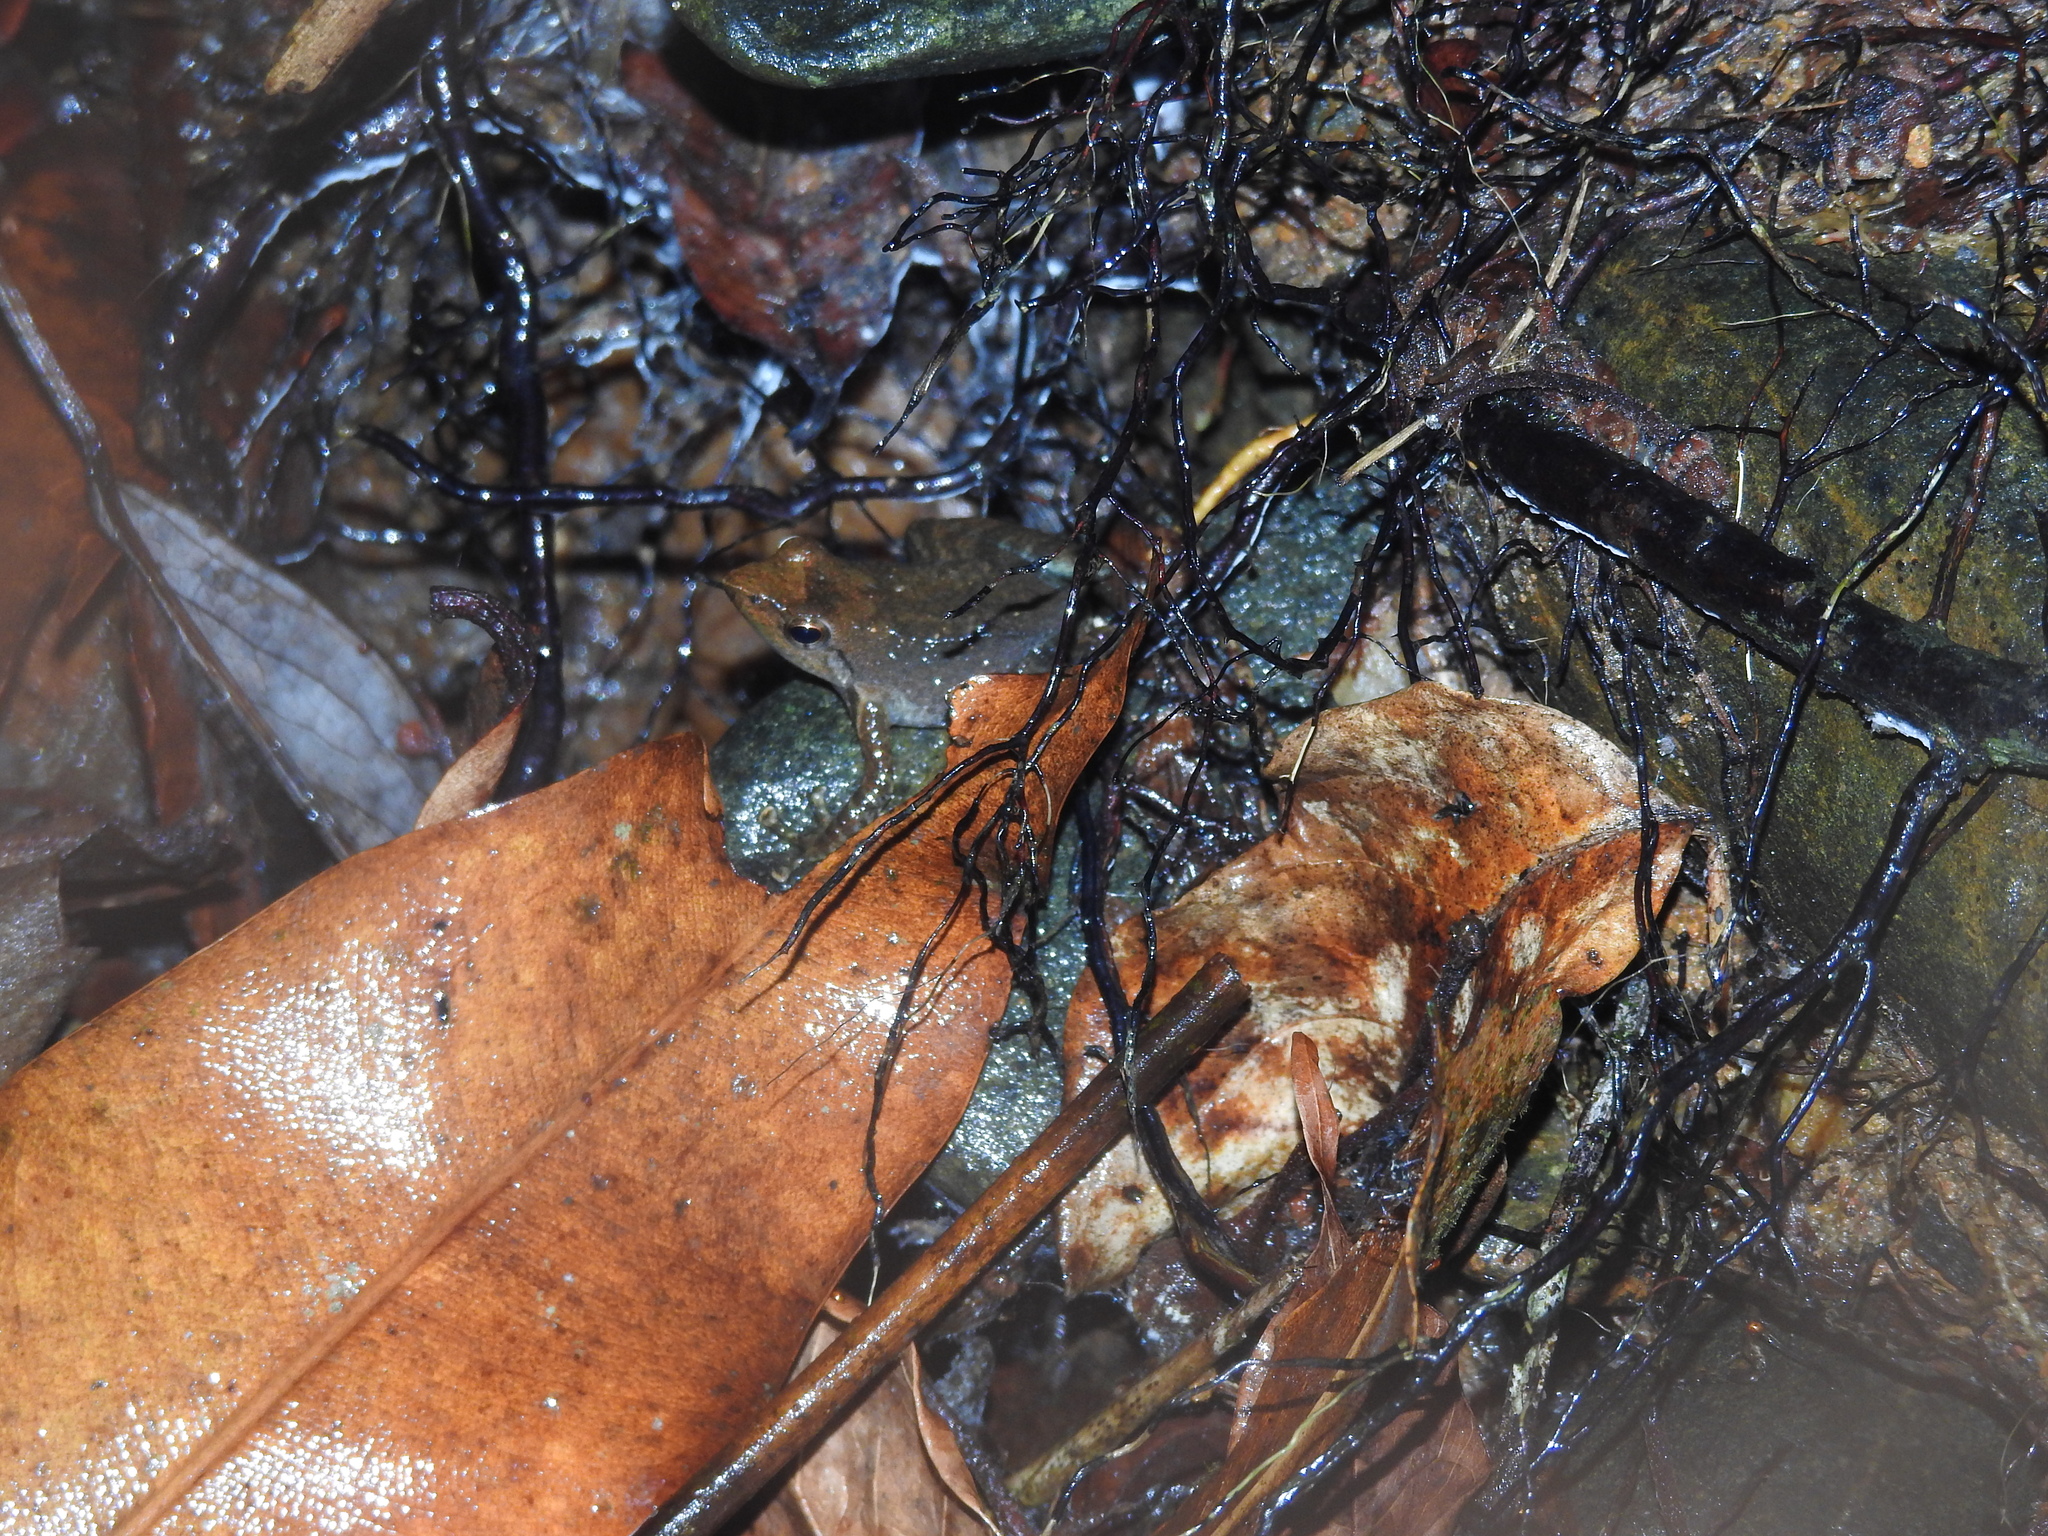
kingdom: Animalia
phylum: Chordata
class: Amphibia
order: Anura
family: Micrixalidae
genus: Micrixalus
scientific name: Micrixalus kottigeharensis
